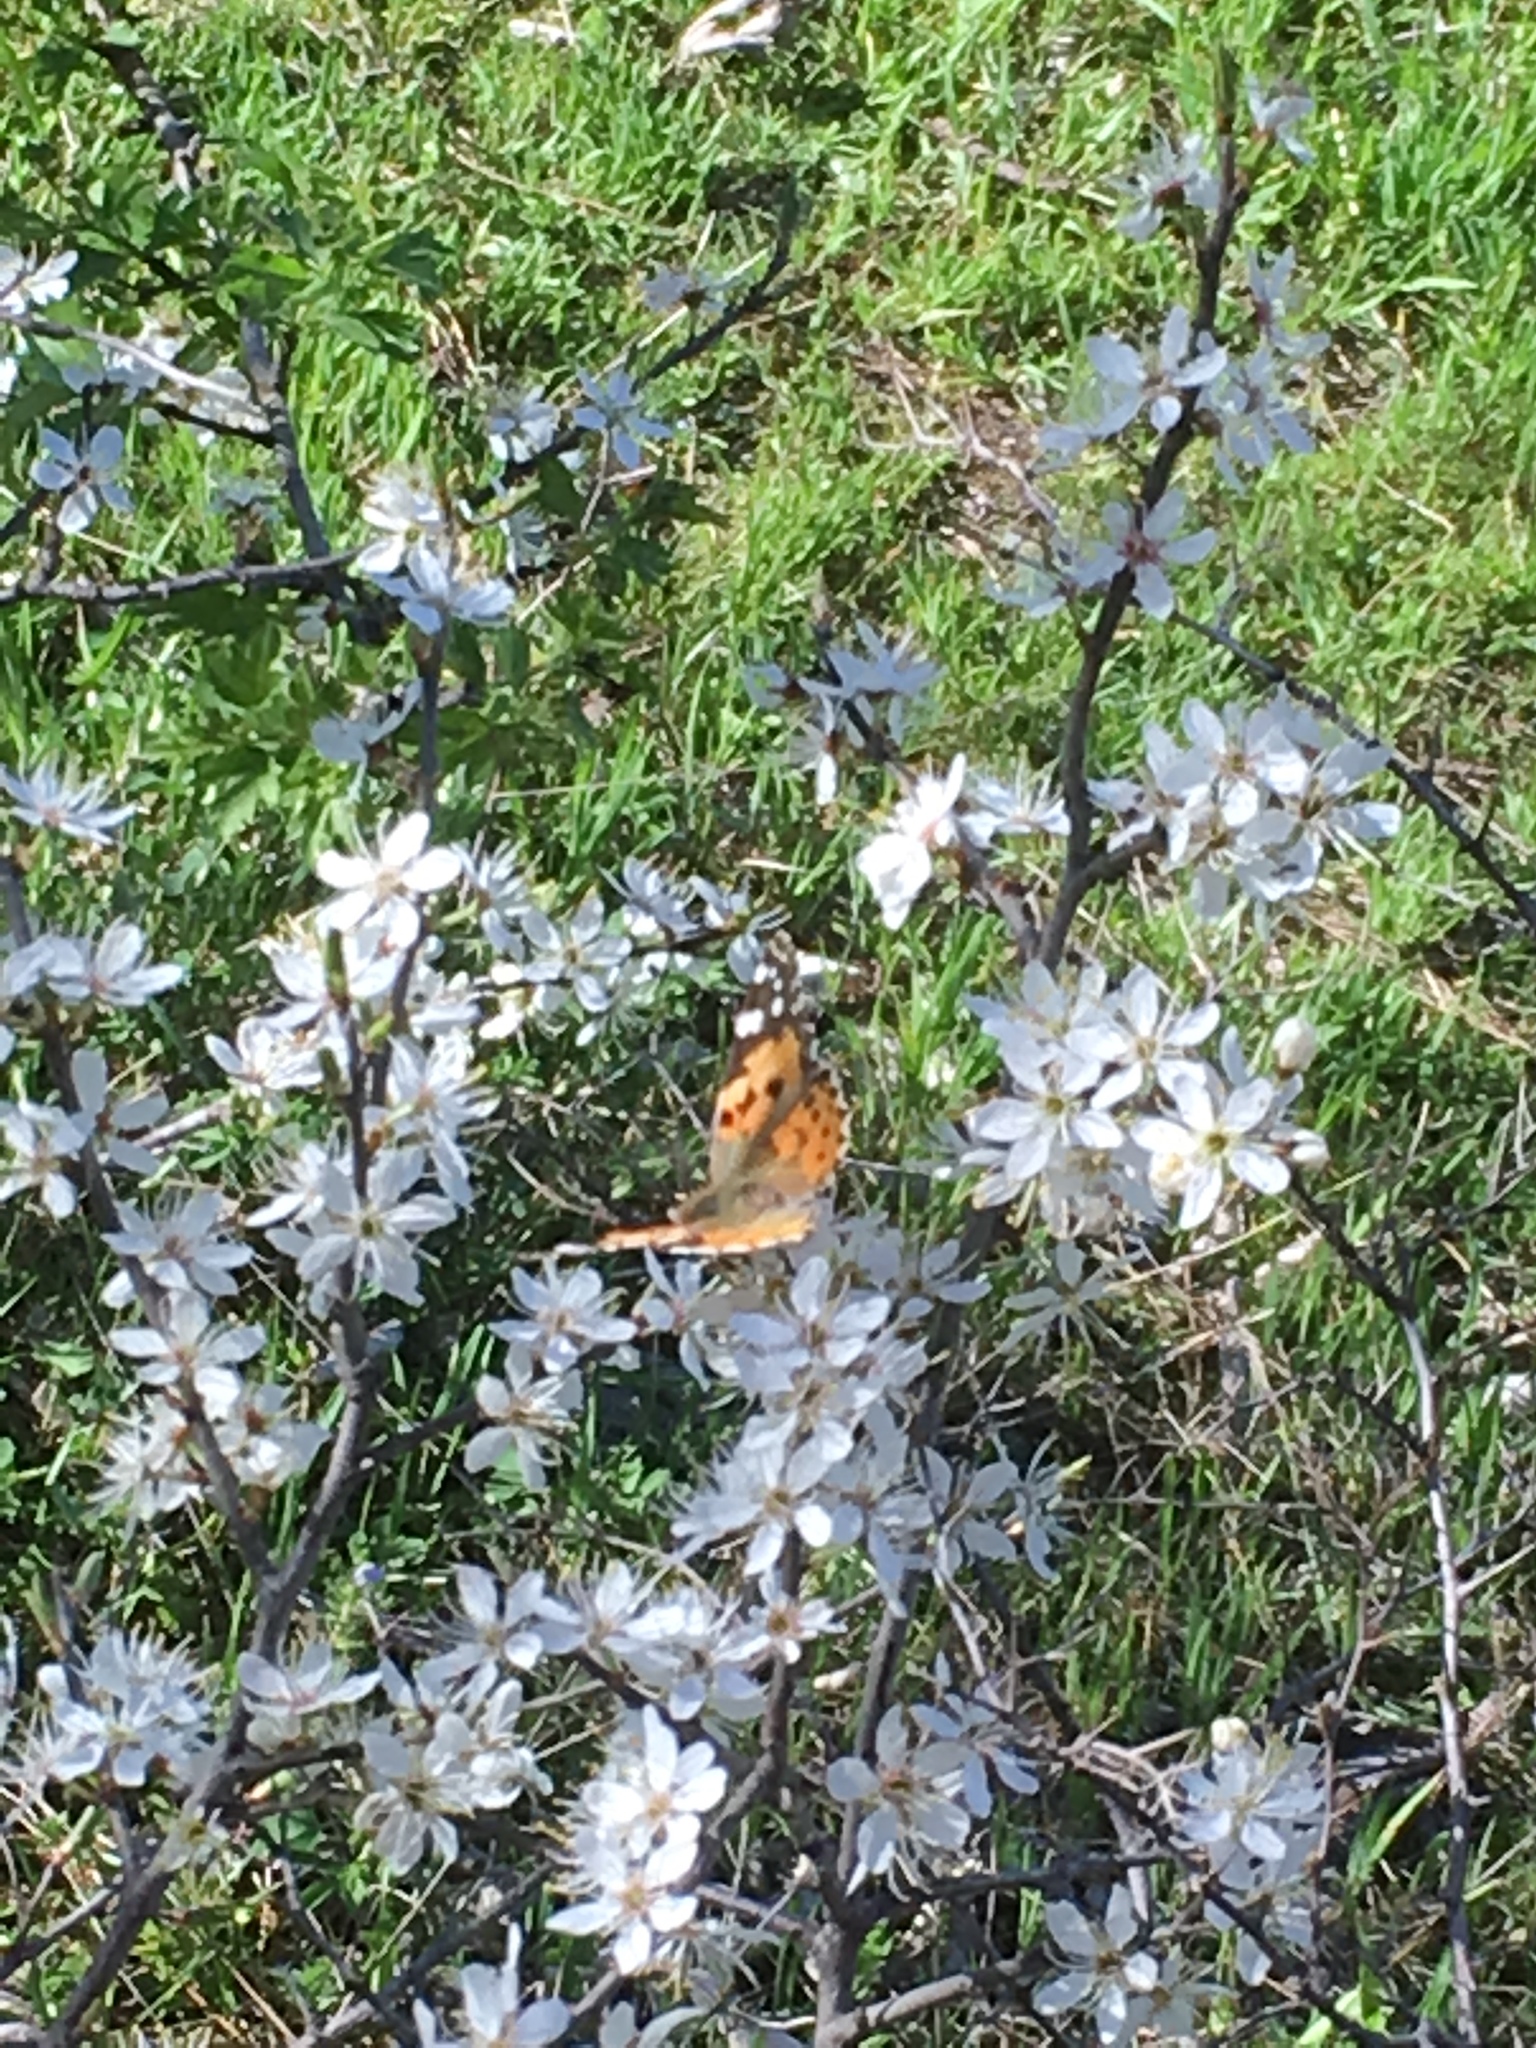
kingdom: Animalia
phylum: Arthropoda
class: Insecta
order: Lepidoptera
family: Nymphalidae
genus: Vanessa
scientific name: Vanessa cardui
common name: Painted lady
